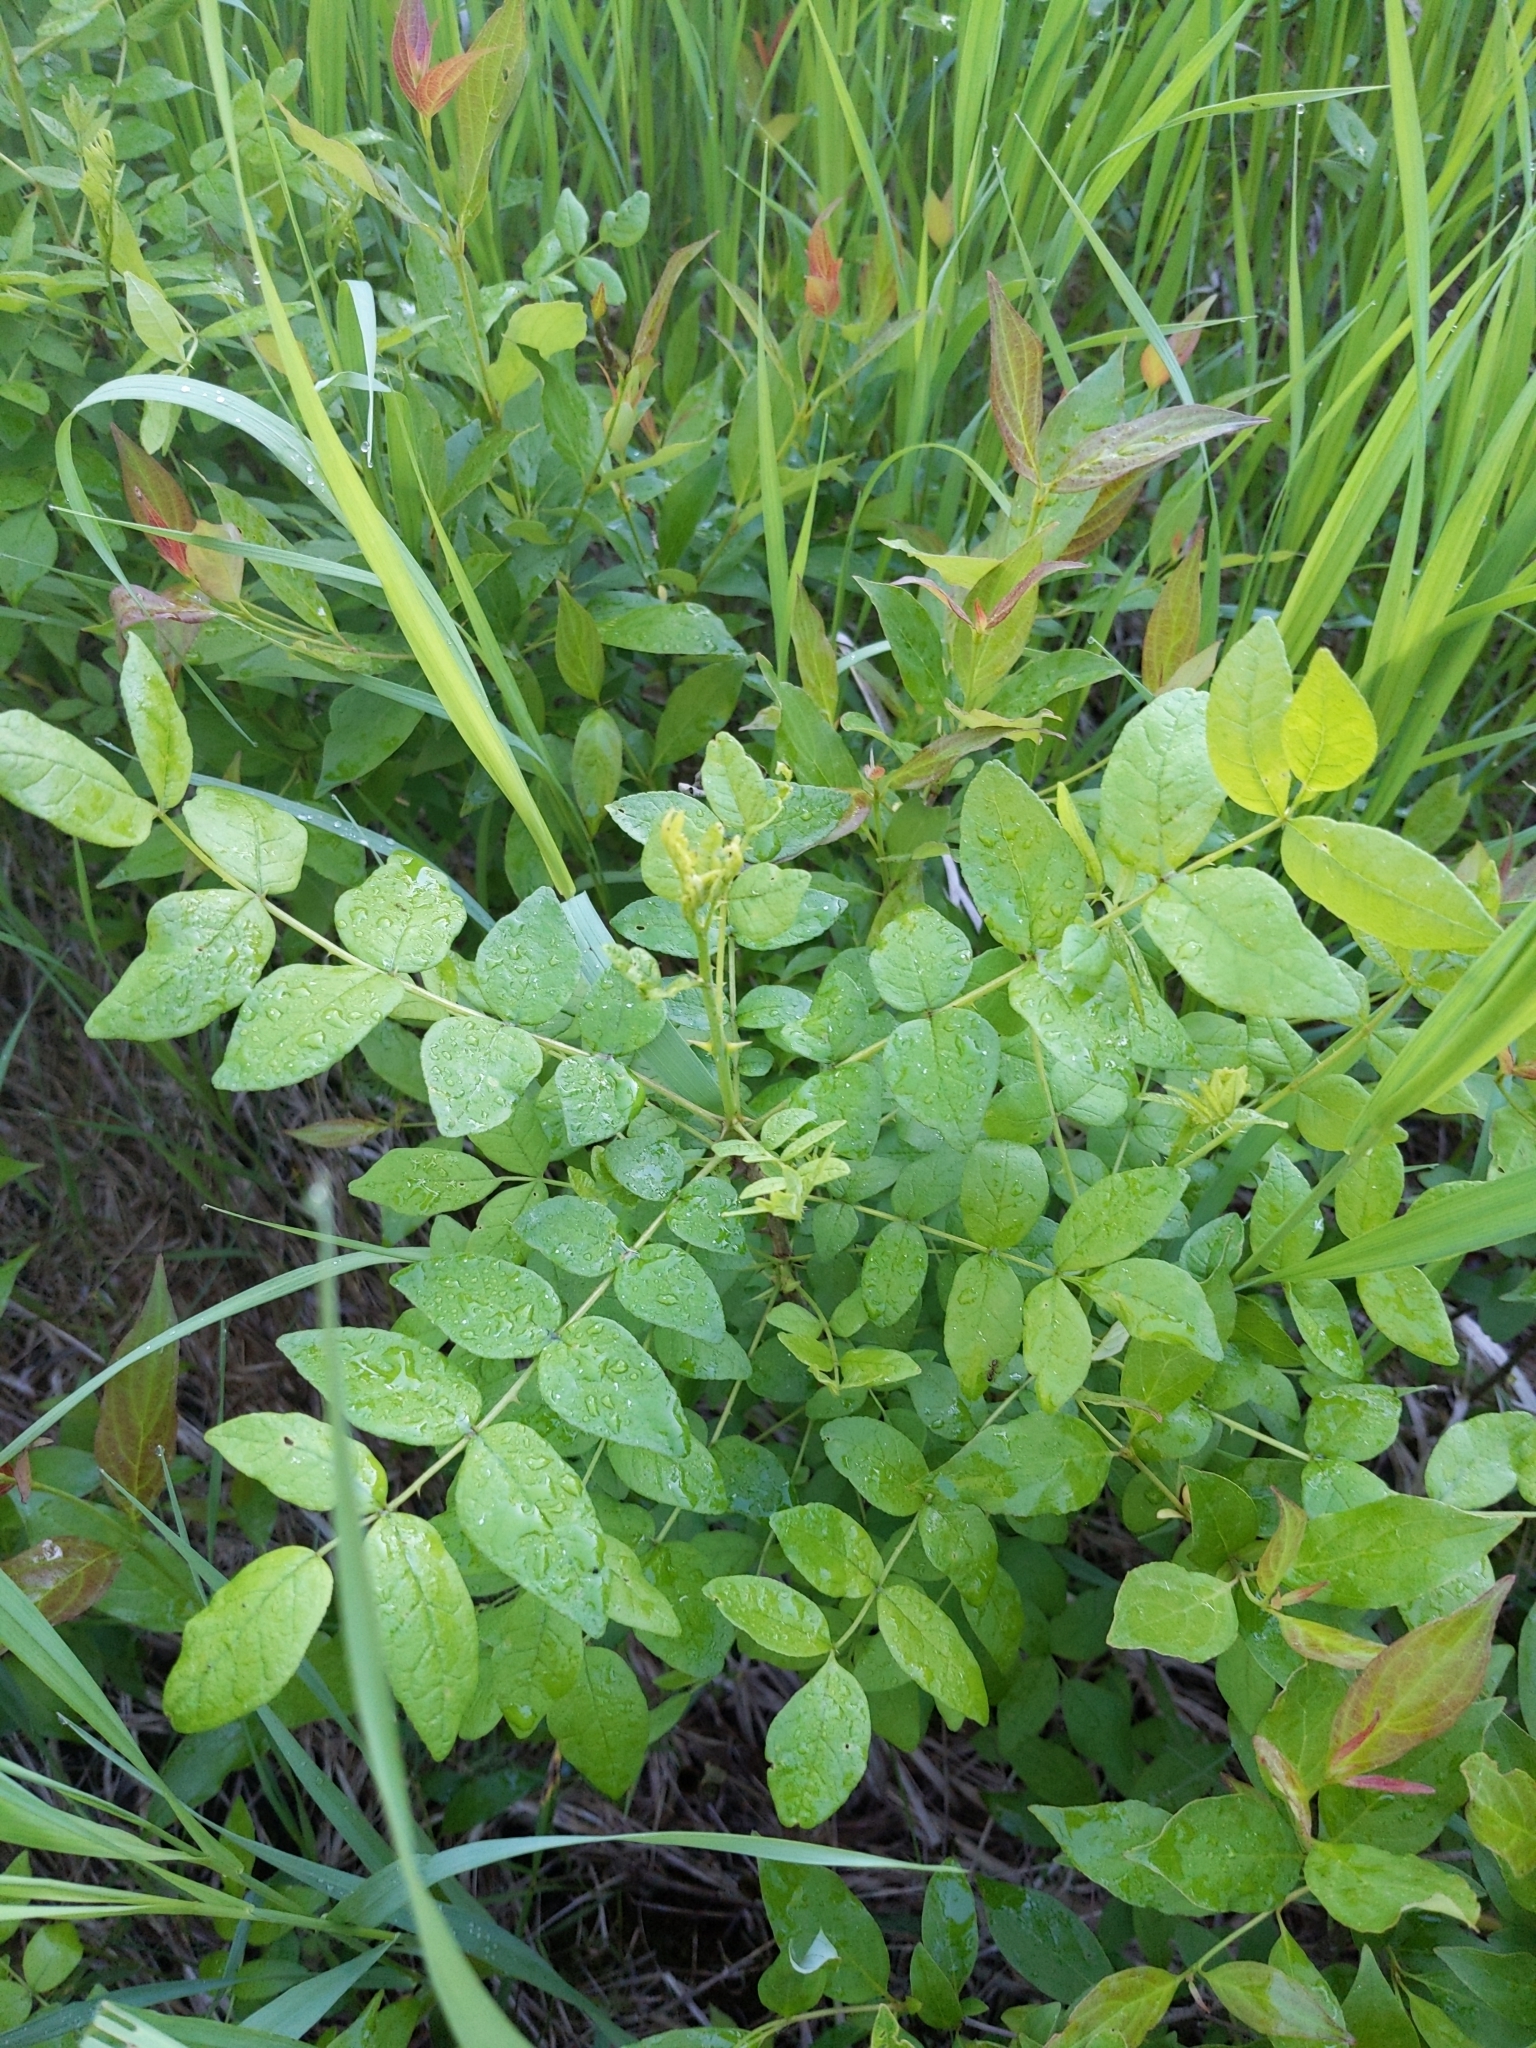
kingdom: Plantae
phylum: Tracheophyta
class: Magnoliopsida
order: Sapindales
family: Rutaceae
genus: Zanthoxylum
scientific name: Zanthoxylum americanum
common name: Northern prickly-ash
